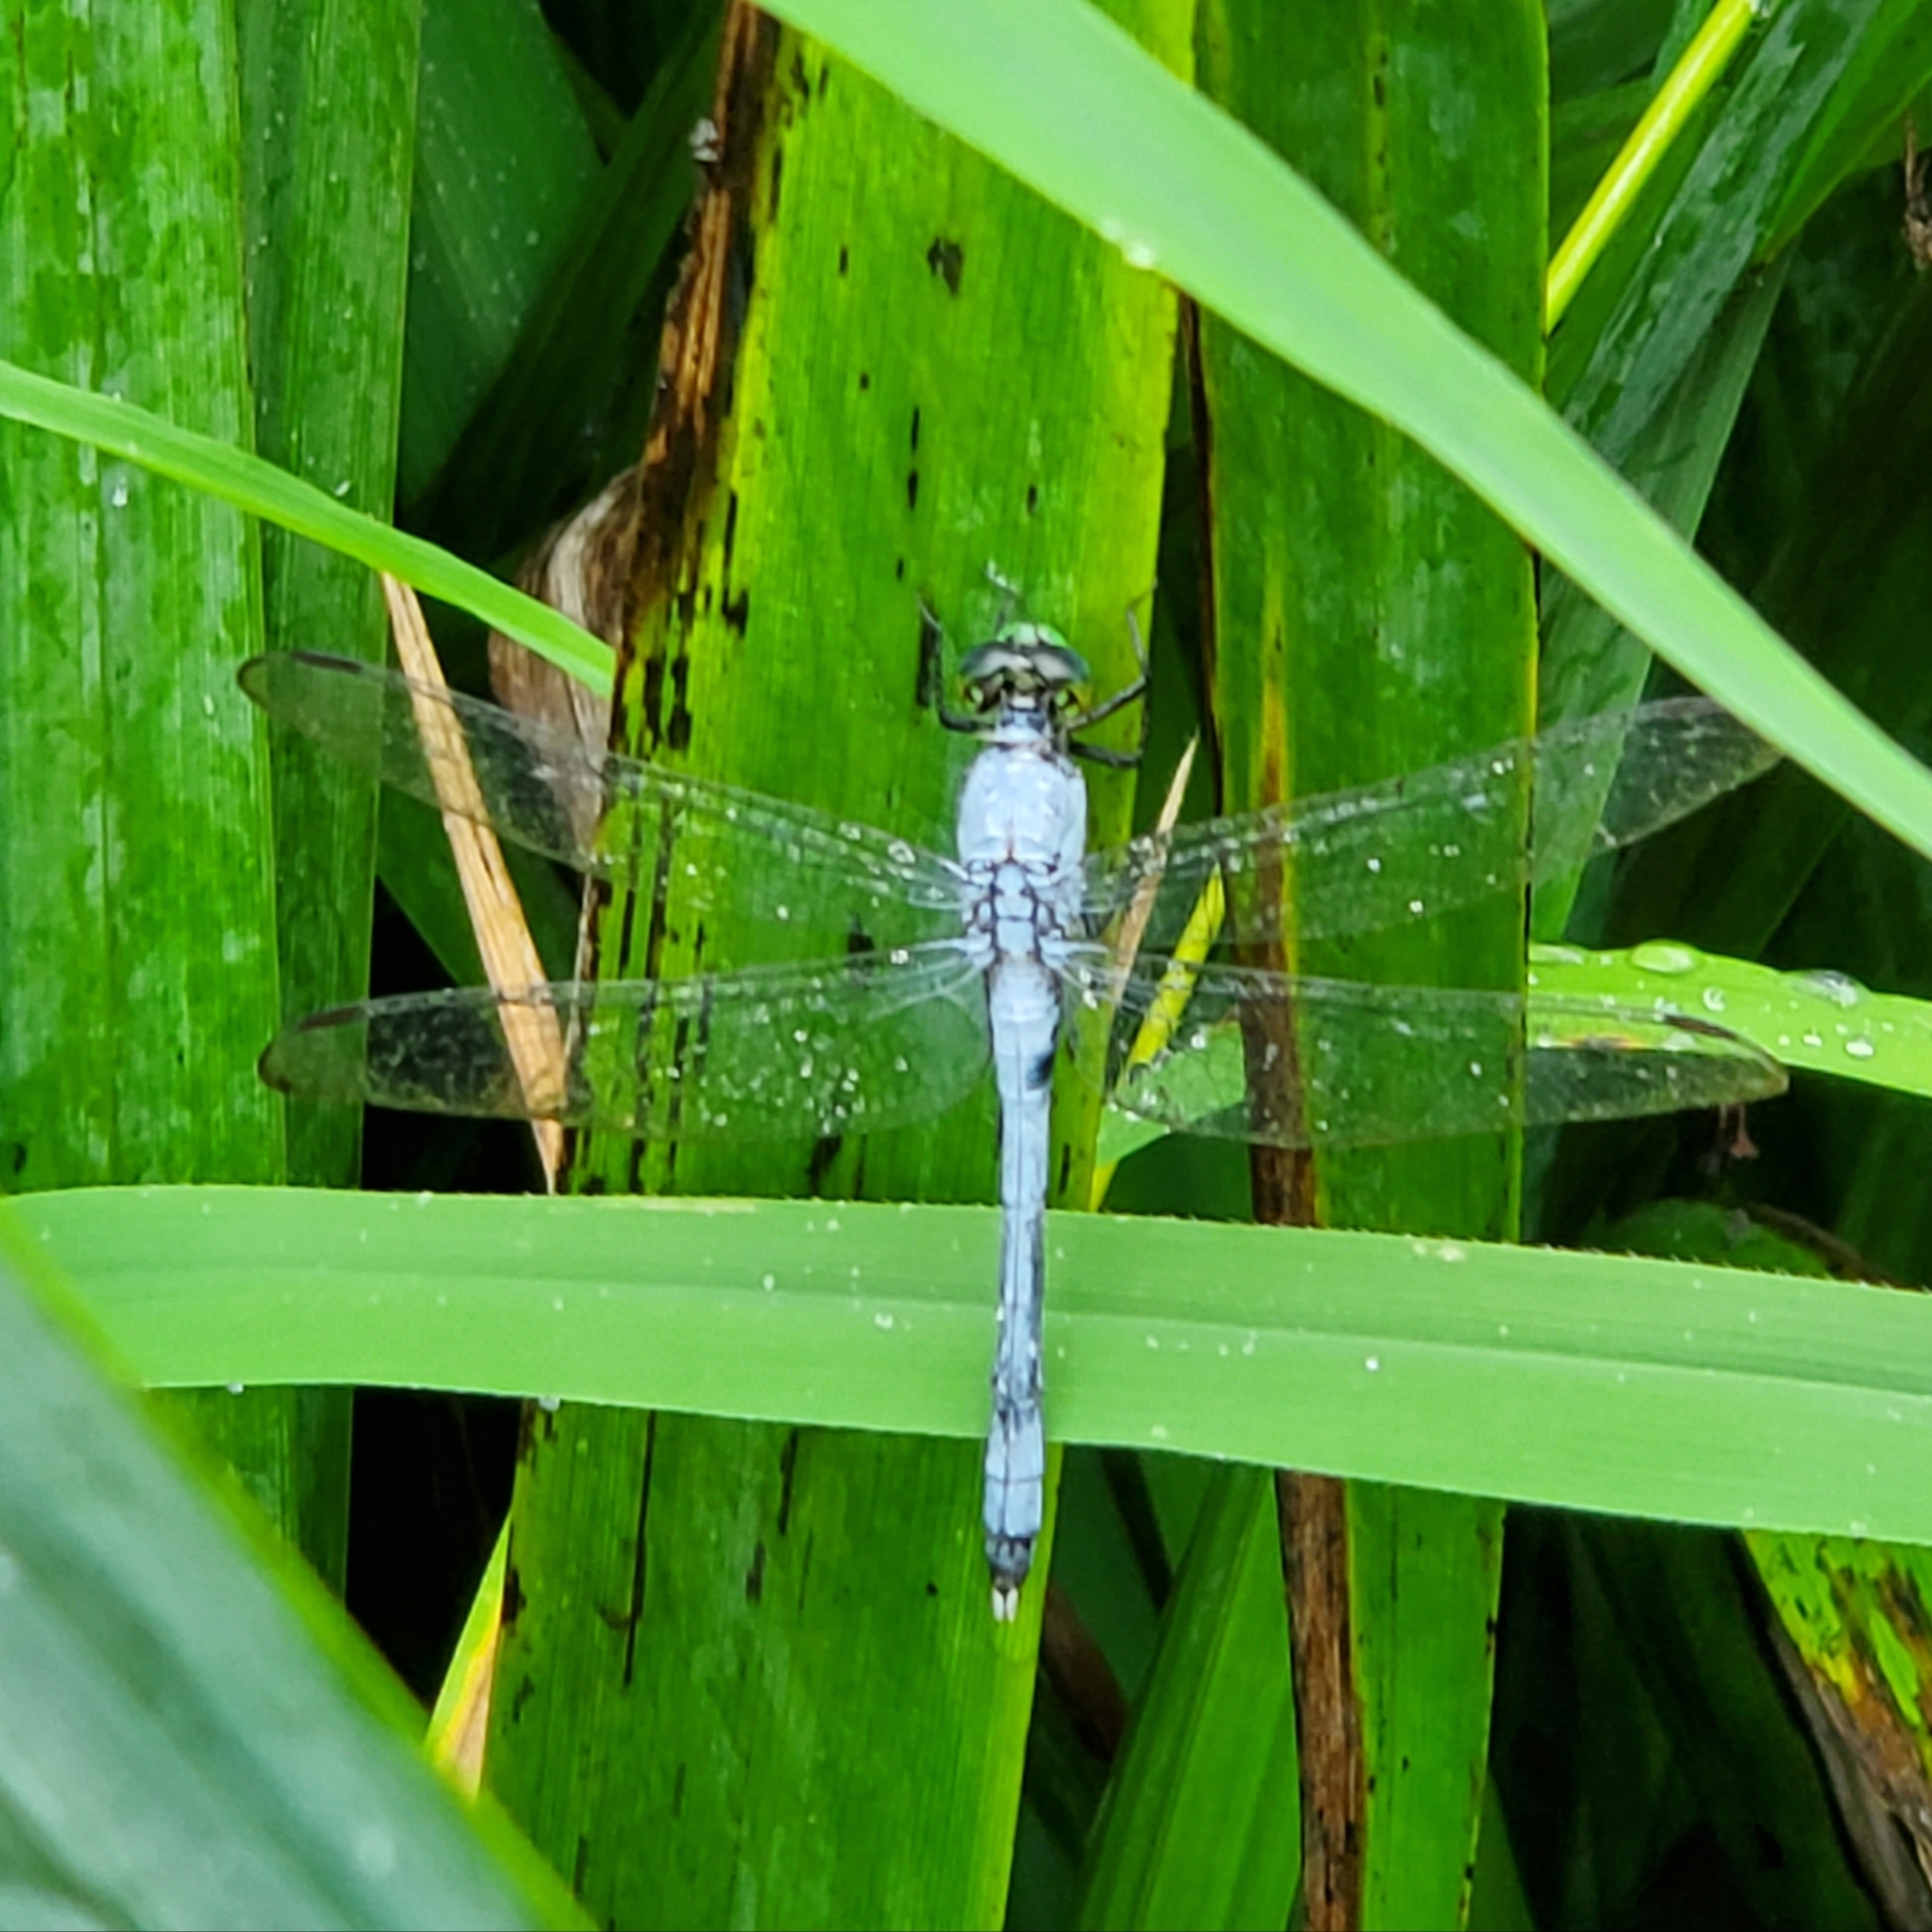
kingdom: Animalia
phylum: Arthropoda
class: Insecta
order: Odonata
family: Libellulidae
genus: Erythemis
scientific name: Erythemis simplicicollis
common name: Eastern pondhawk
